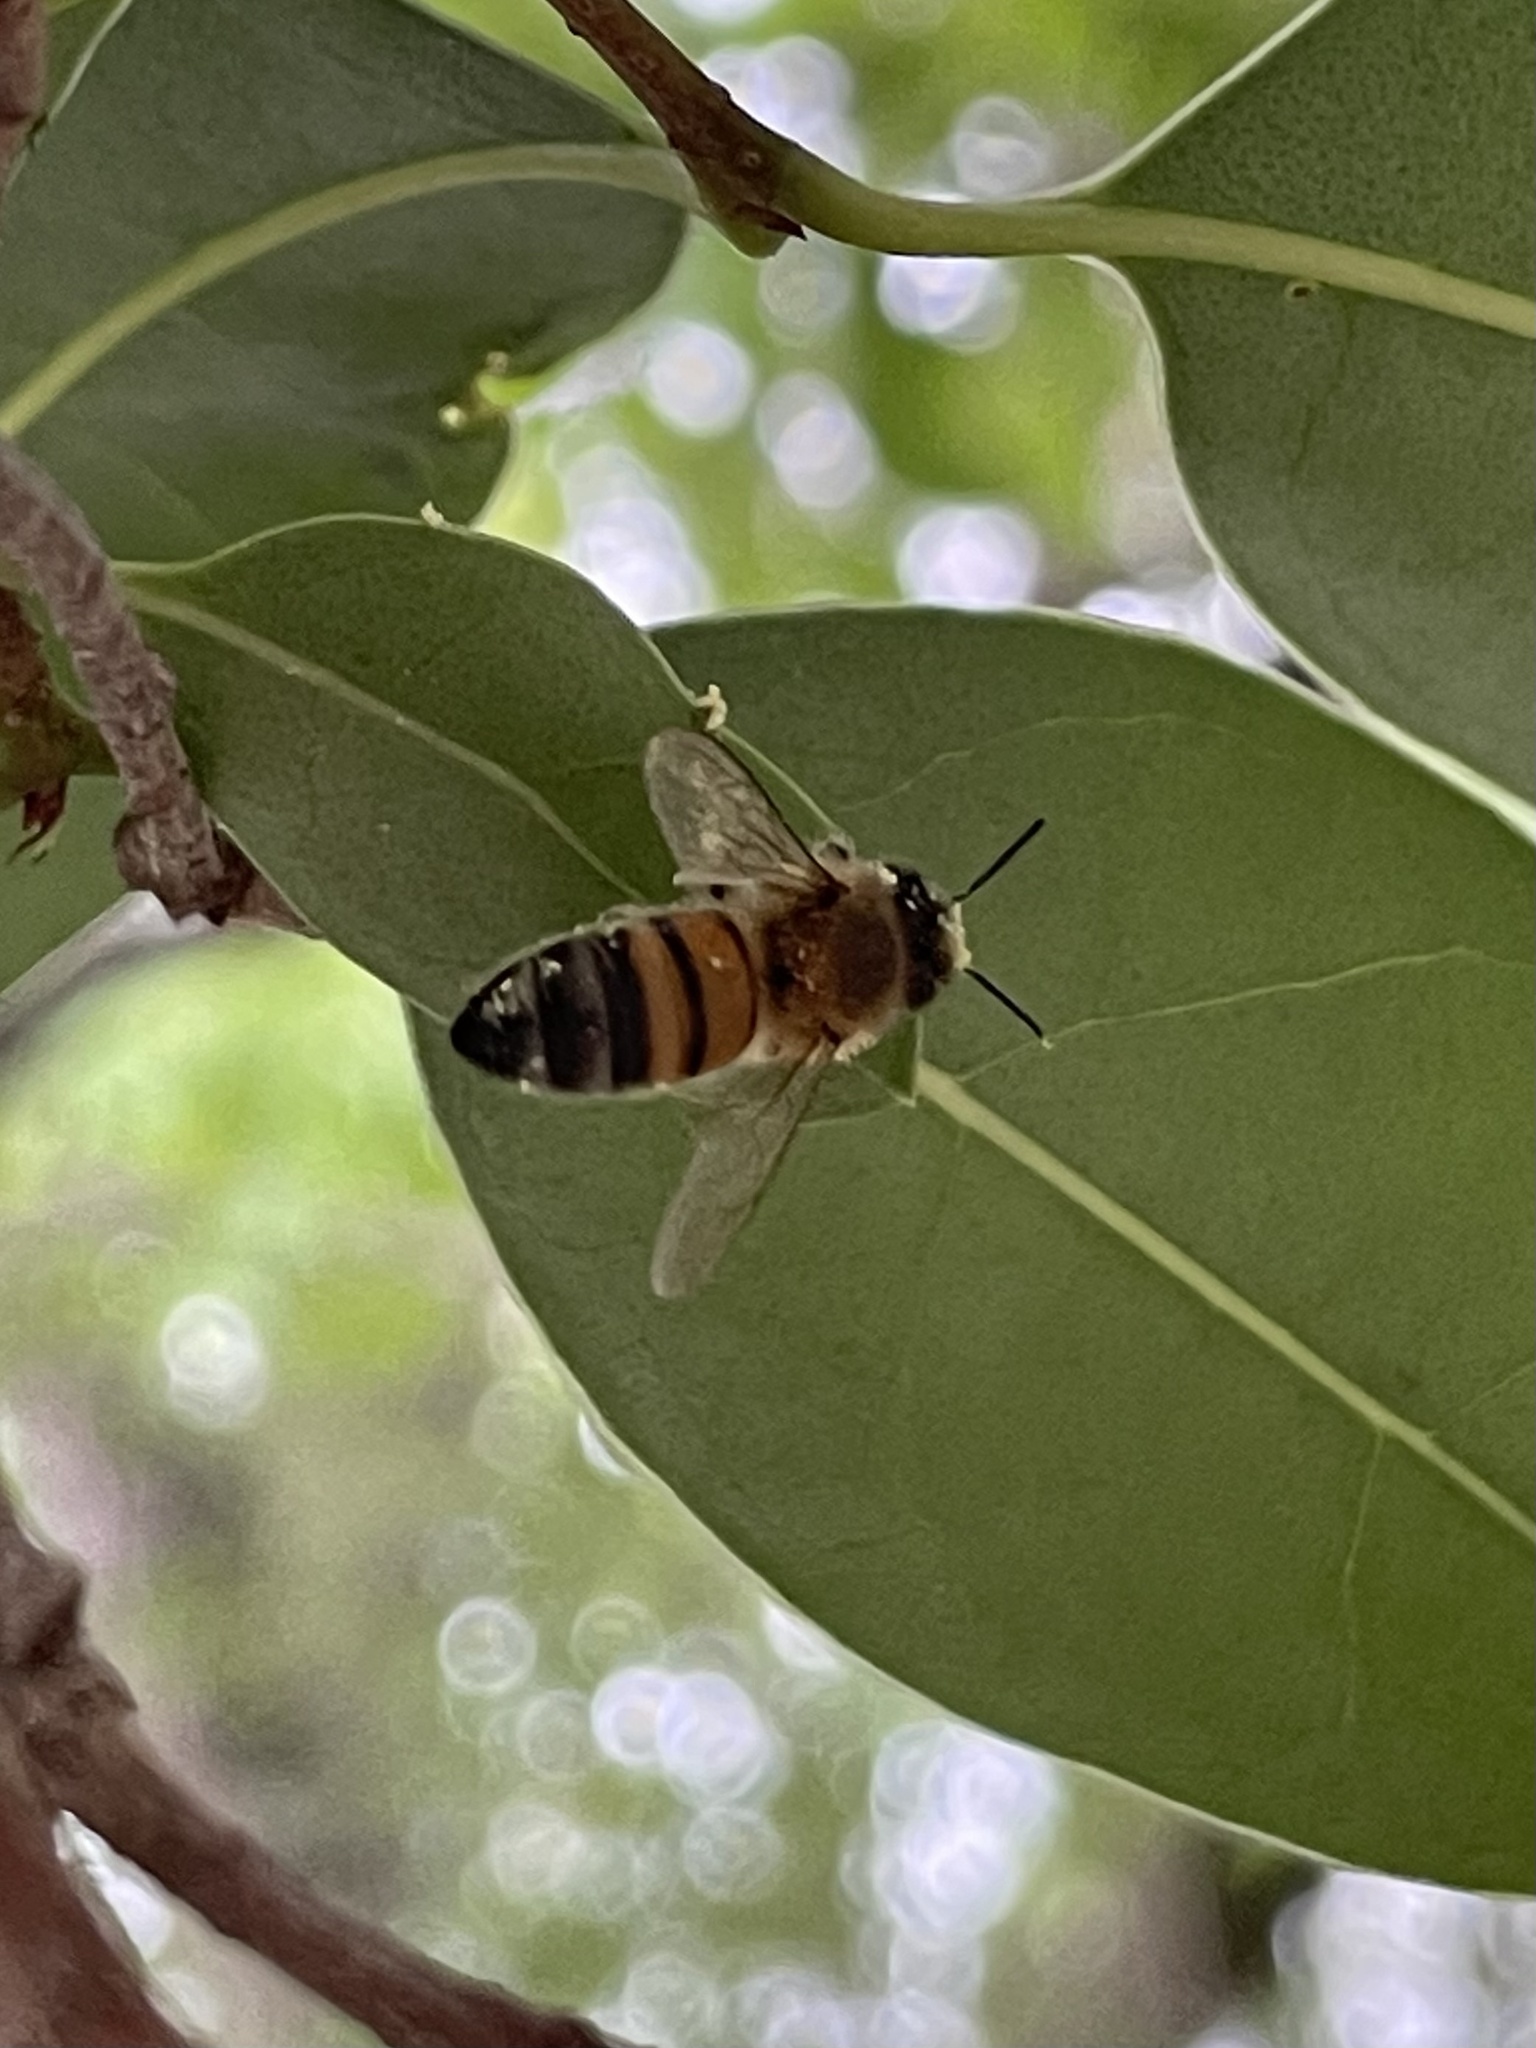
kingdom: Animalia
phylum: Arthropoda
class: Insecta
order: Hymenoptera
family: Apidae
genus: Apis
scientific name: Apis mellifera
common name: Honey bee
